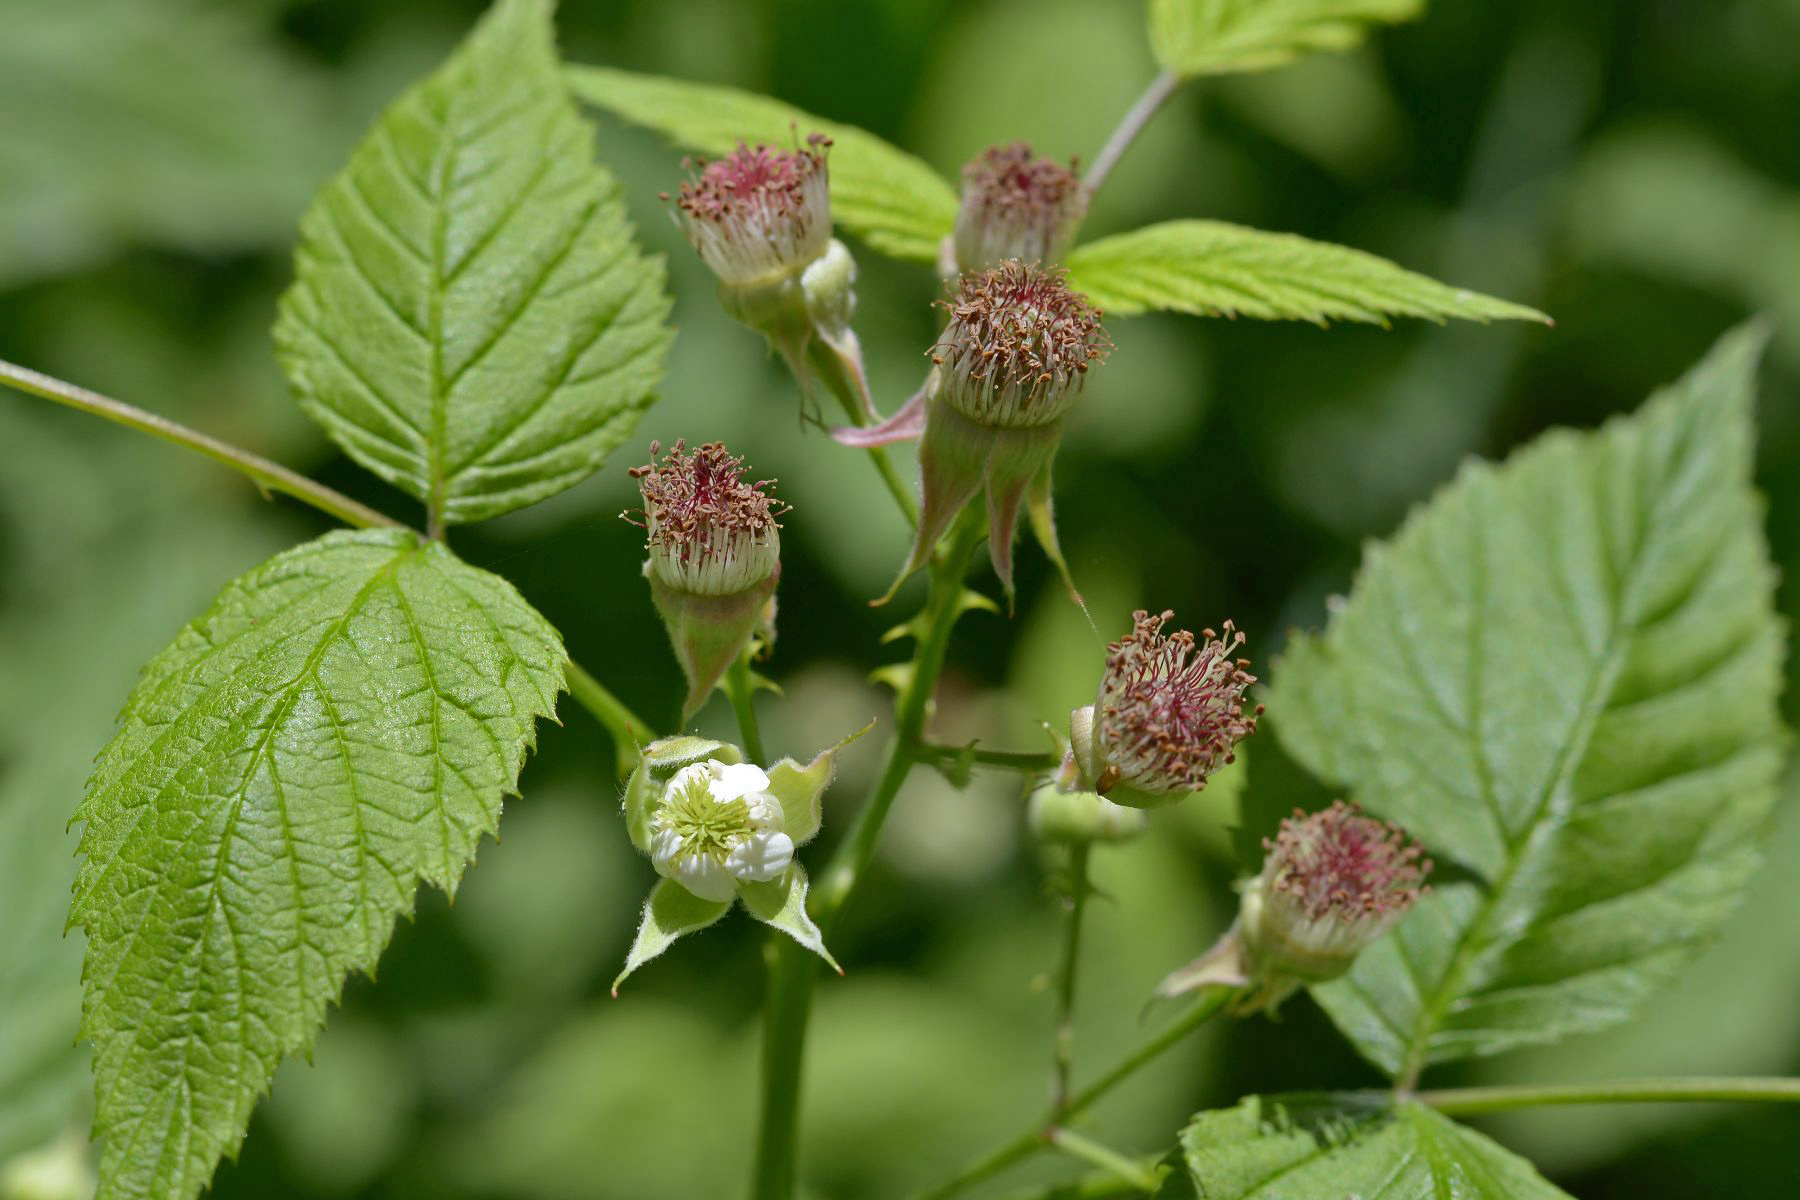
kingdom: Plantae
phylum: Tracheophyta
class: Magnoliopsida
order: Rosales
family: Rosaceae
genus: Rubus
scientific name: Rubus leucodermis
